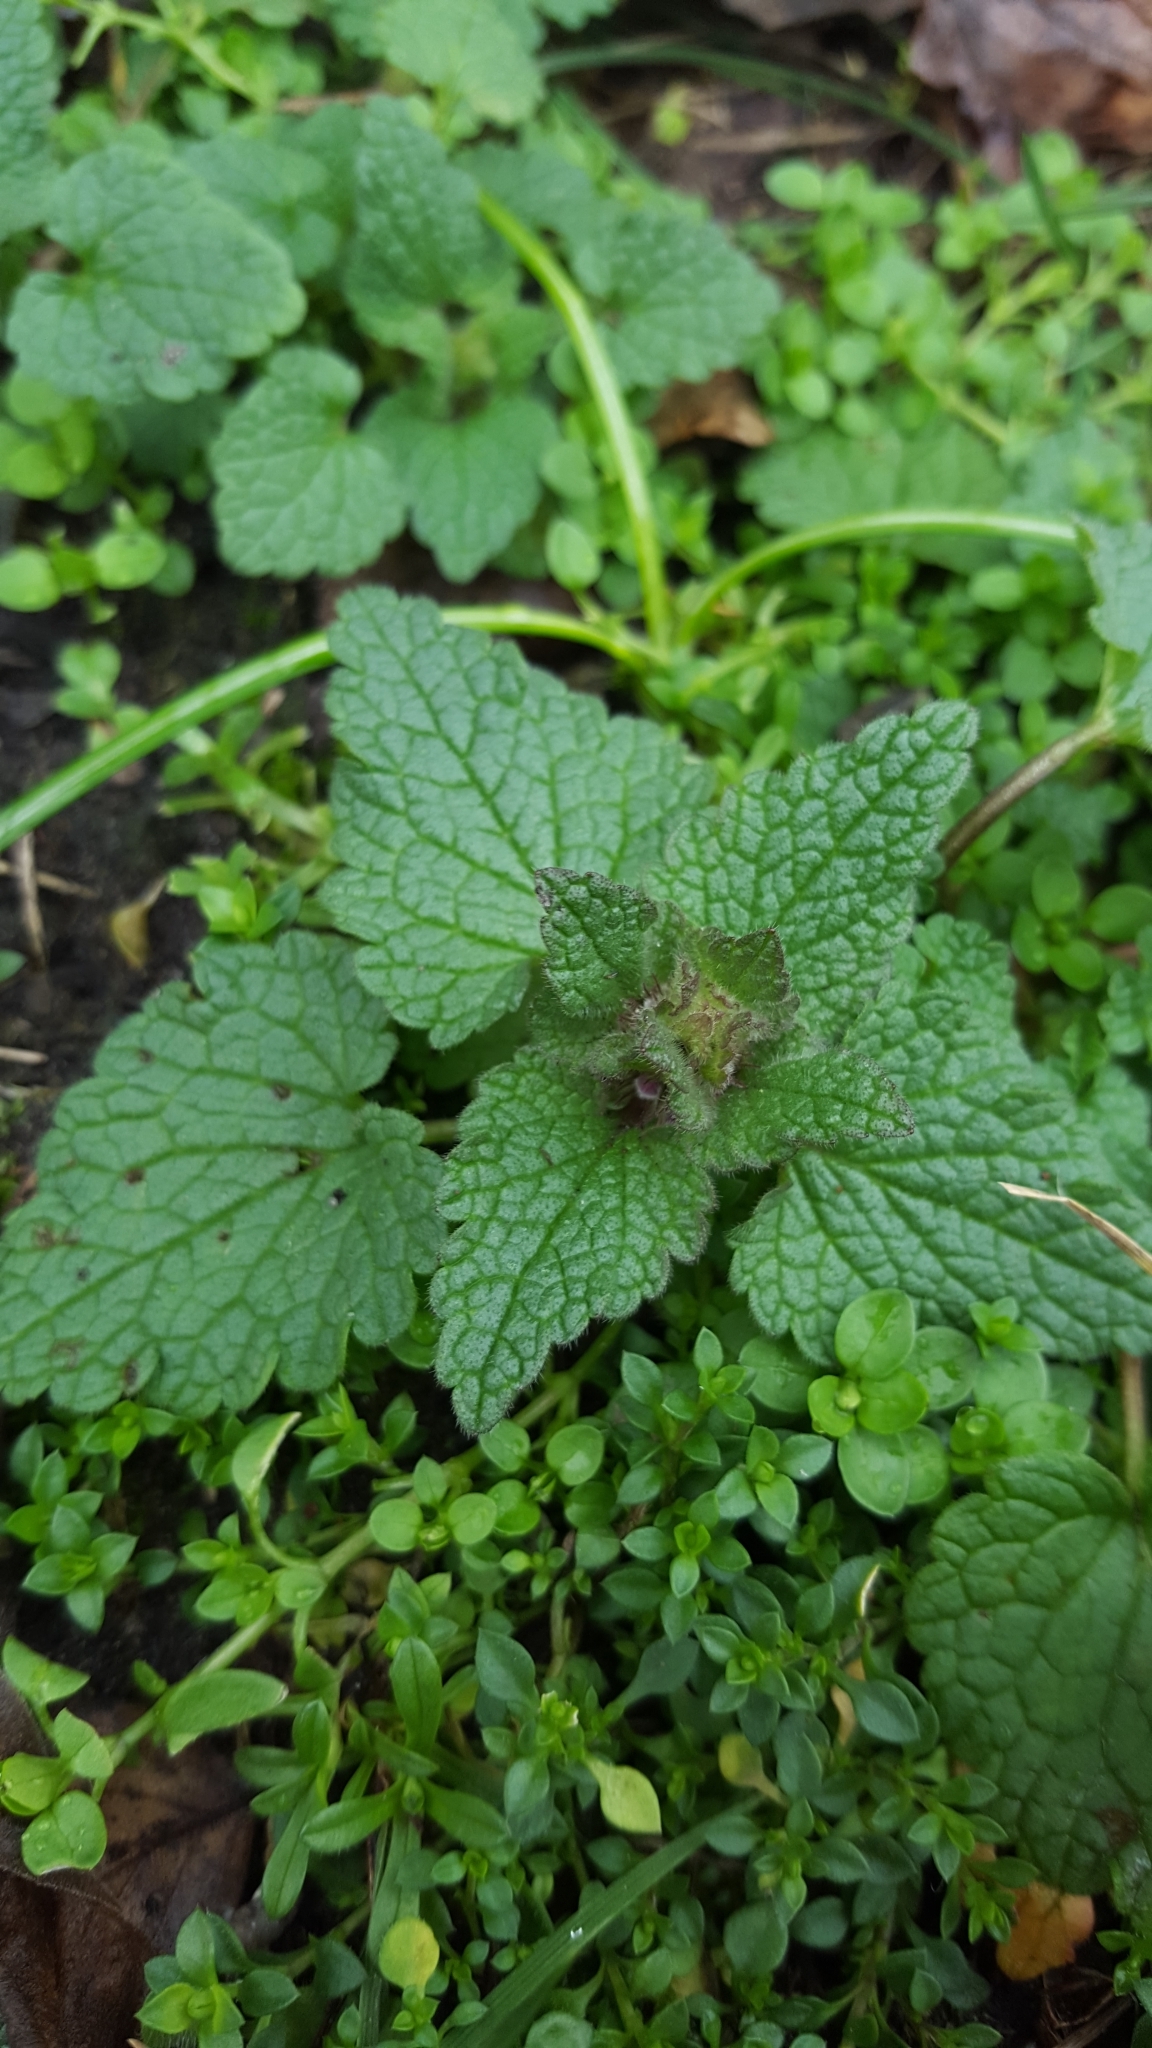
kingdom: Plantae
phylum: Tracheophyta
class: Magnoliopsida
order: Lamiales
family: Lamiaceae
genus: Lamium
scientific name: Lamium purpureum
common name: Red dead-nettle
